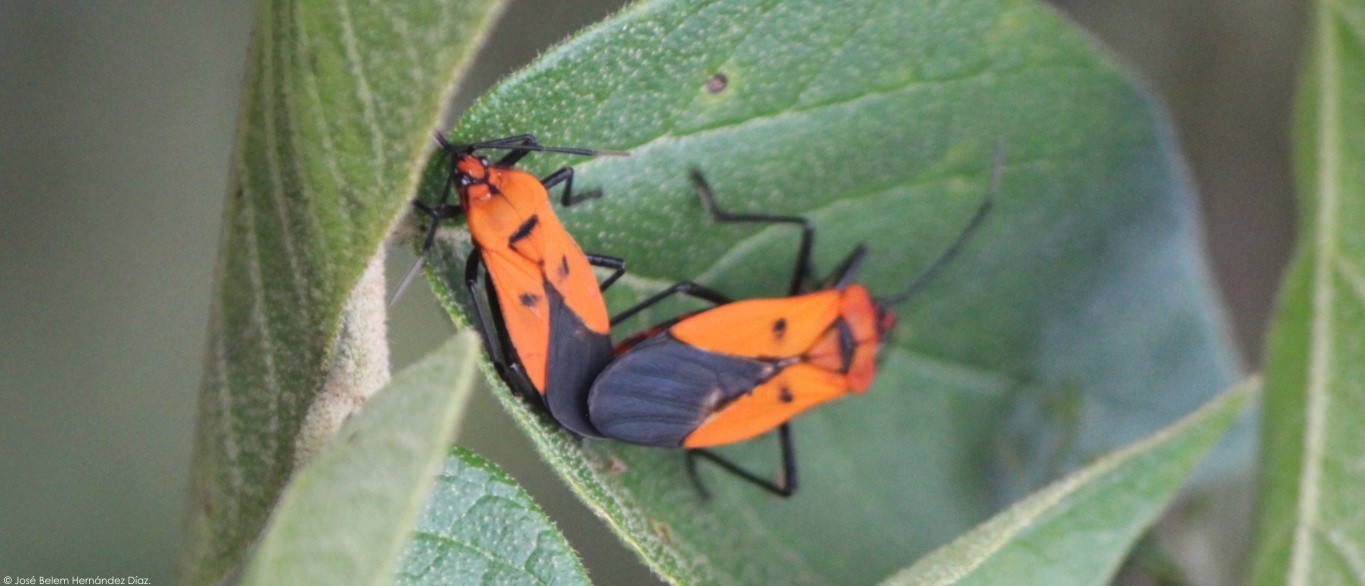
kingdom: Animalia
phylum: Arthropoda
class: Insecta
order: Hemiptera
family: Lygaeidae
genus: Oncopeltus
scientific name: Oncopeltus varicolor
